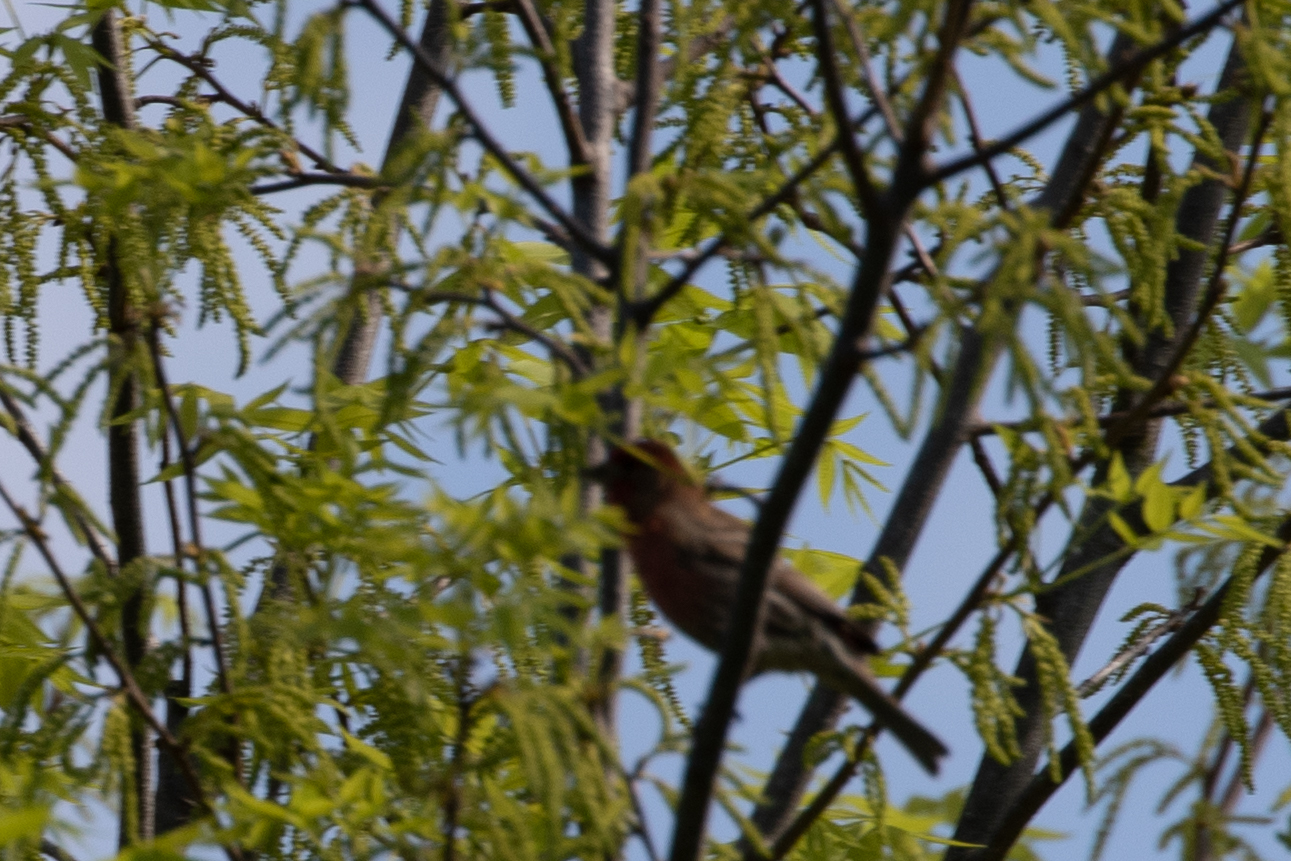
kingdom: Animalia
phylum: Chordata
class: Aves
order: Passeriformes
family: Fringillidae
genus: Haemorhous
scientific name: Haemorhous mexicanus
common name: House finch
